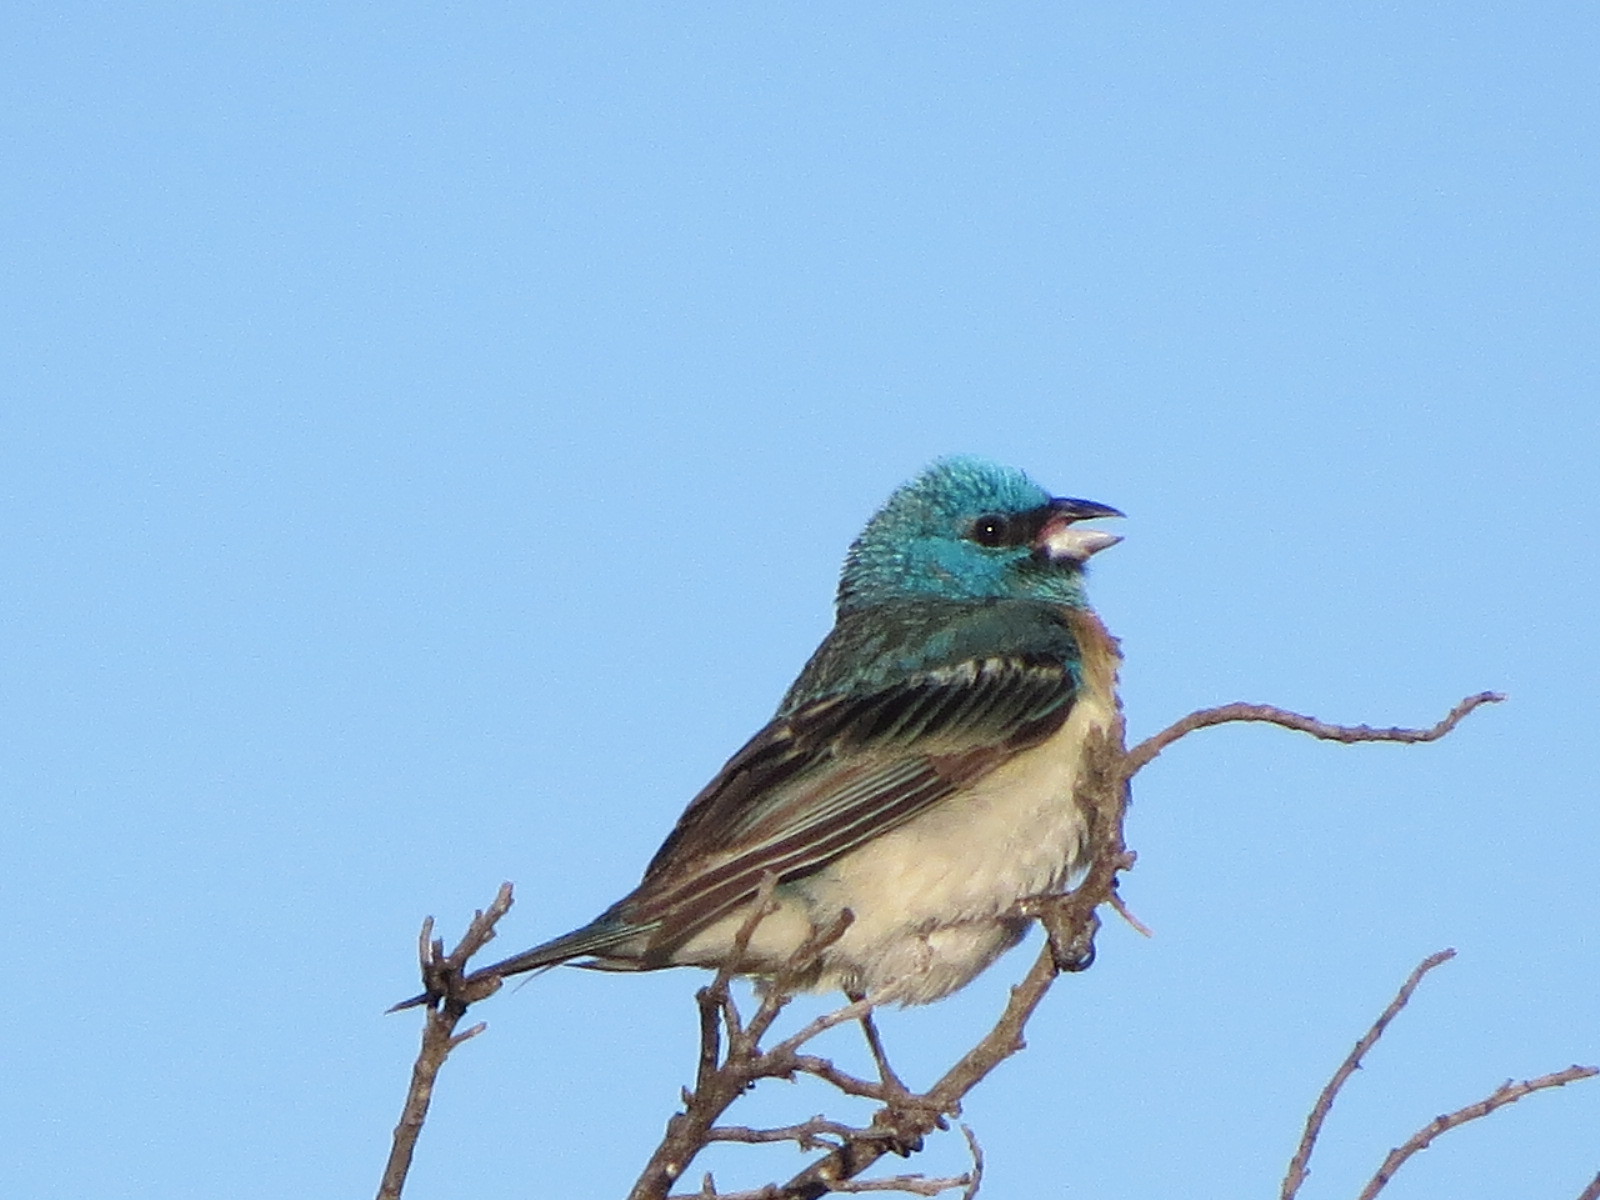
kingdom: Animalia
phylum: Chordata
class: Aves
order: Passeriformes
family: Cardinalidae
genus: Passerina
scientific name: Passerina amoena
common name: Lazuli bunting
